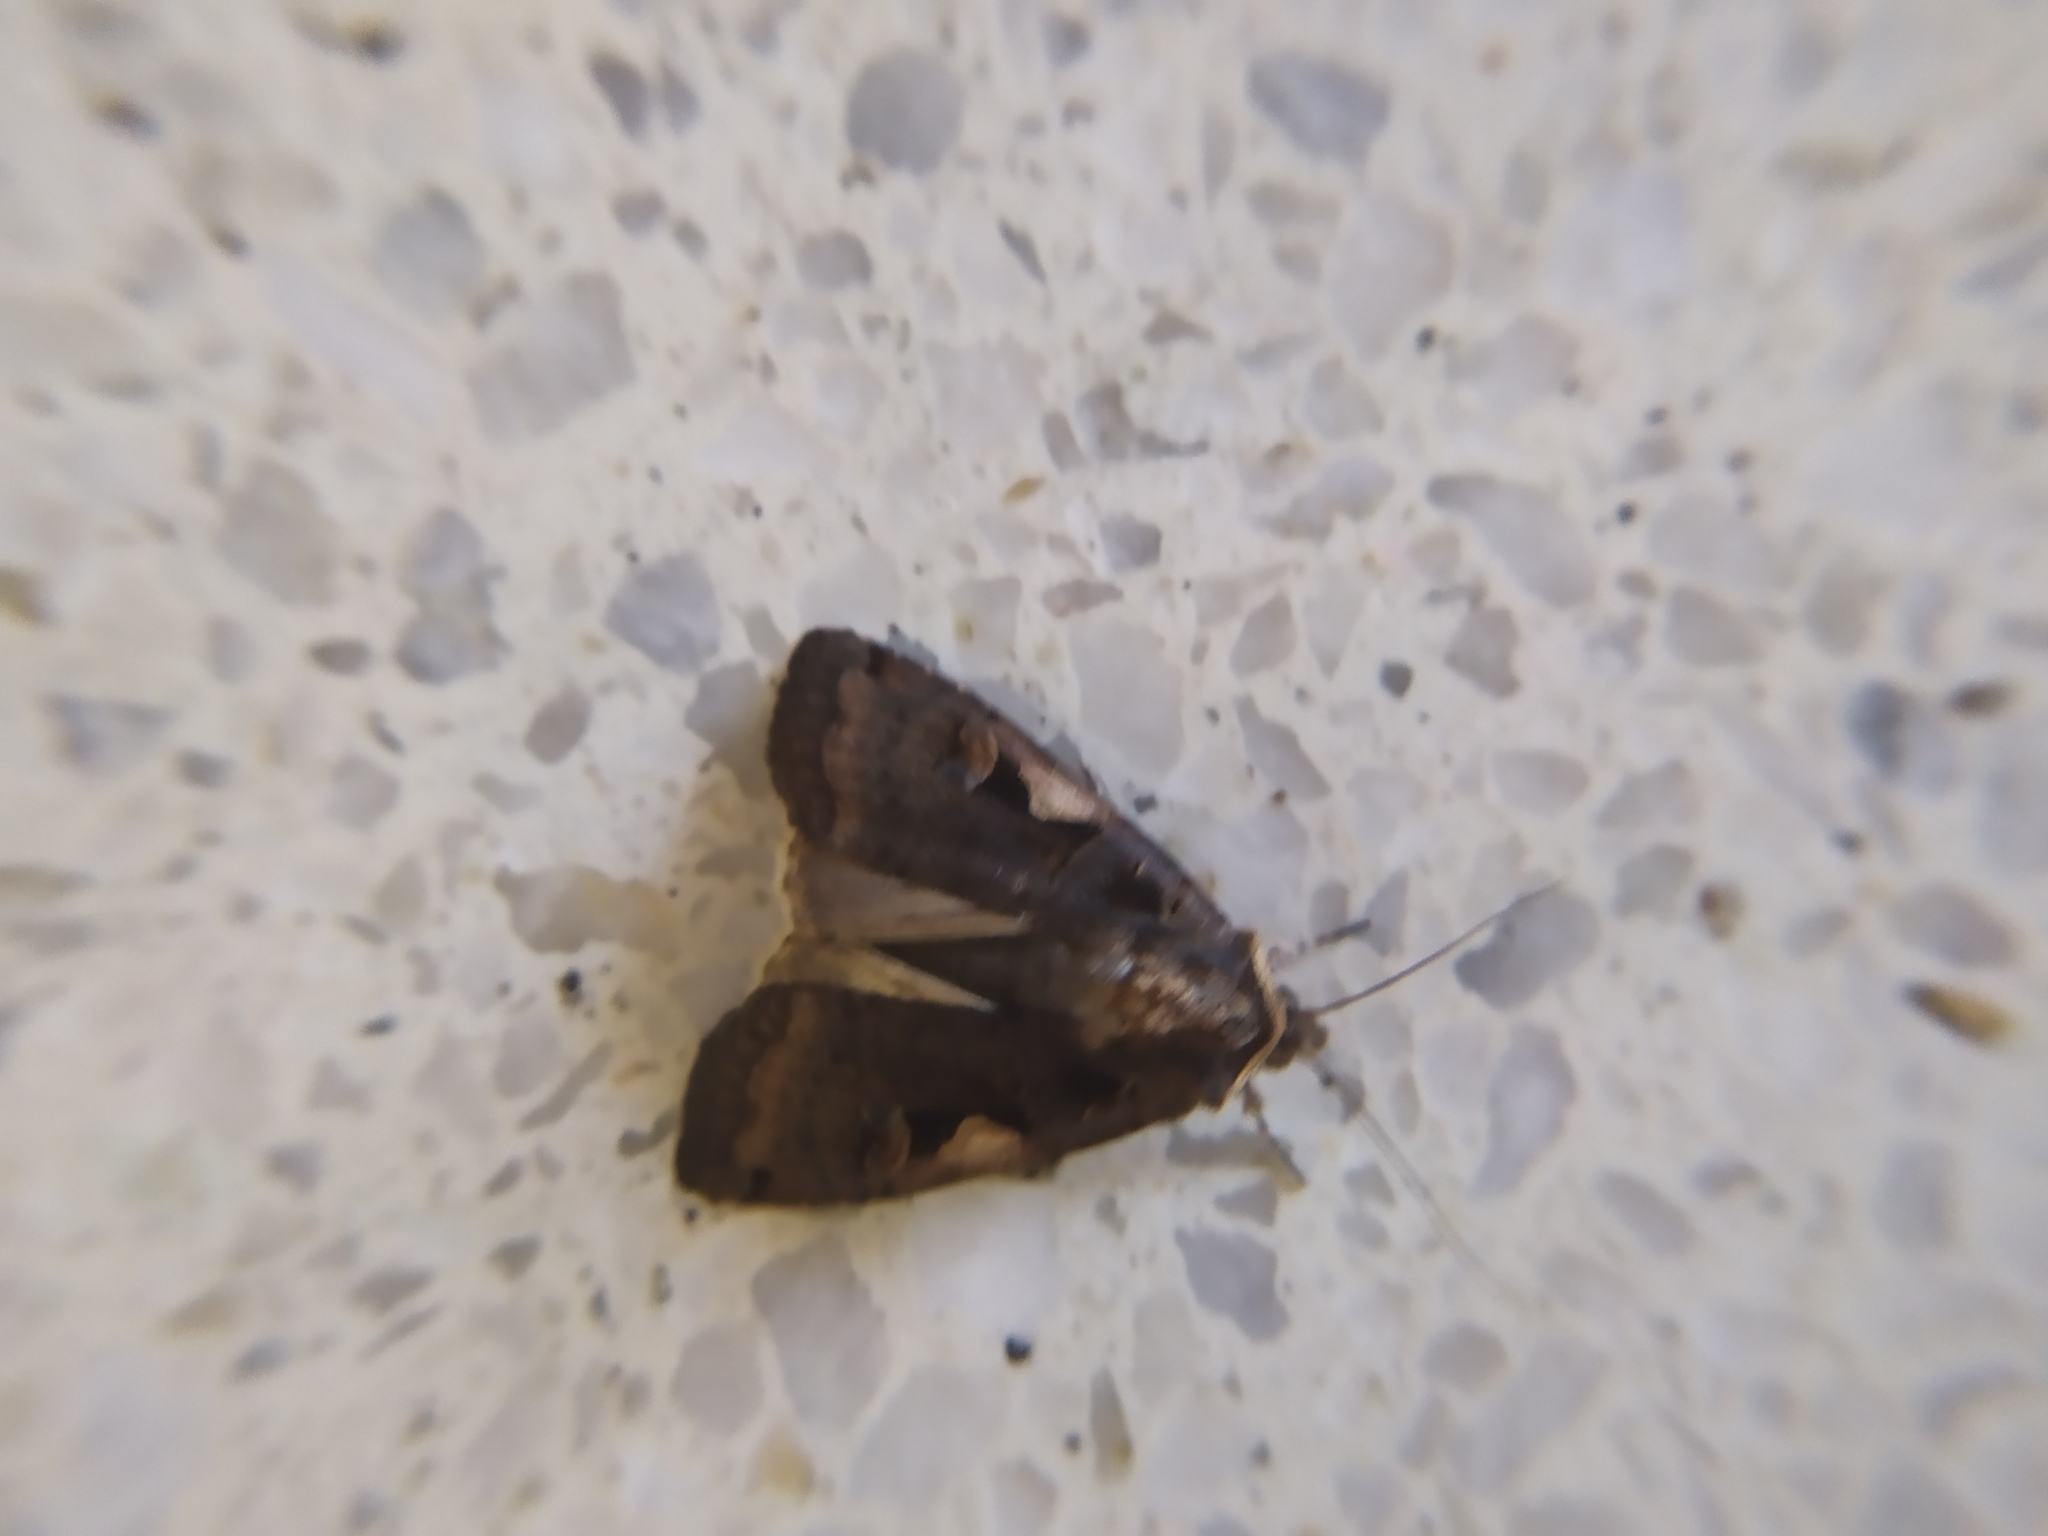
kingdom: Animalia
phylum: Arthropoda
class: Insecta
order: Lepidoptera
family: Noctuidae
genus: Xestia
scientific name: Xestia c-nigrum
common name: Setaceous hebrew character
